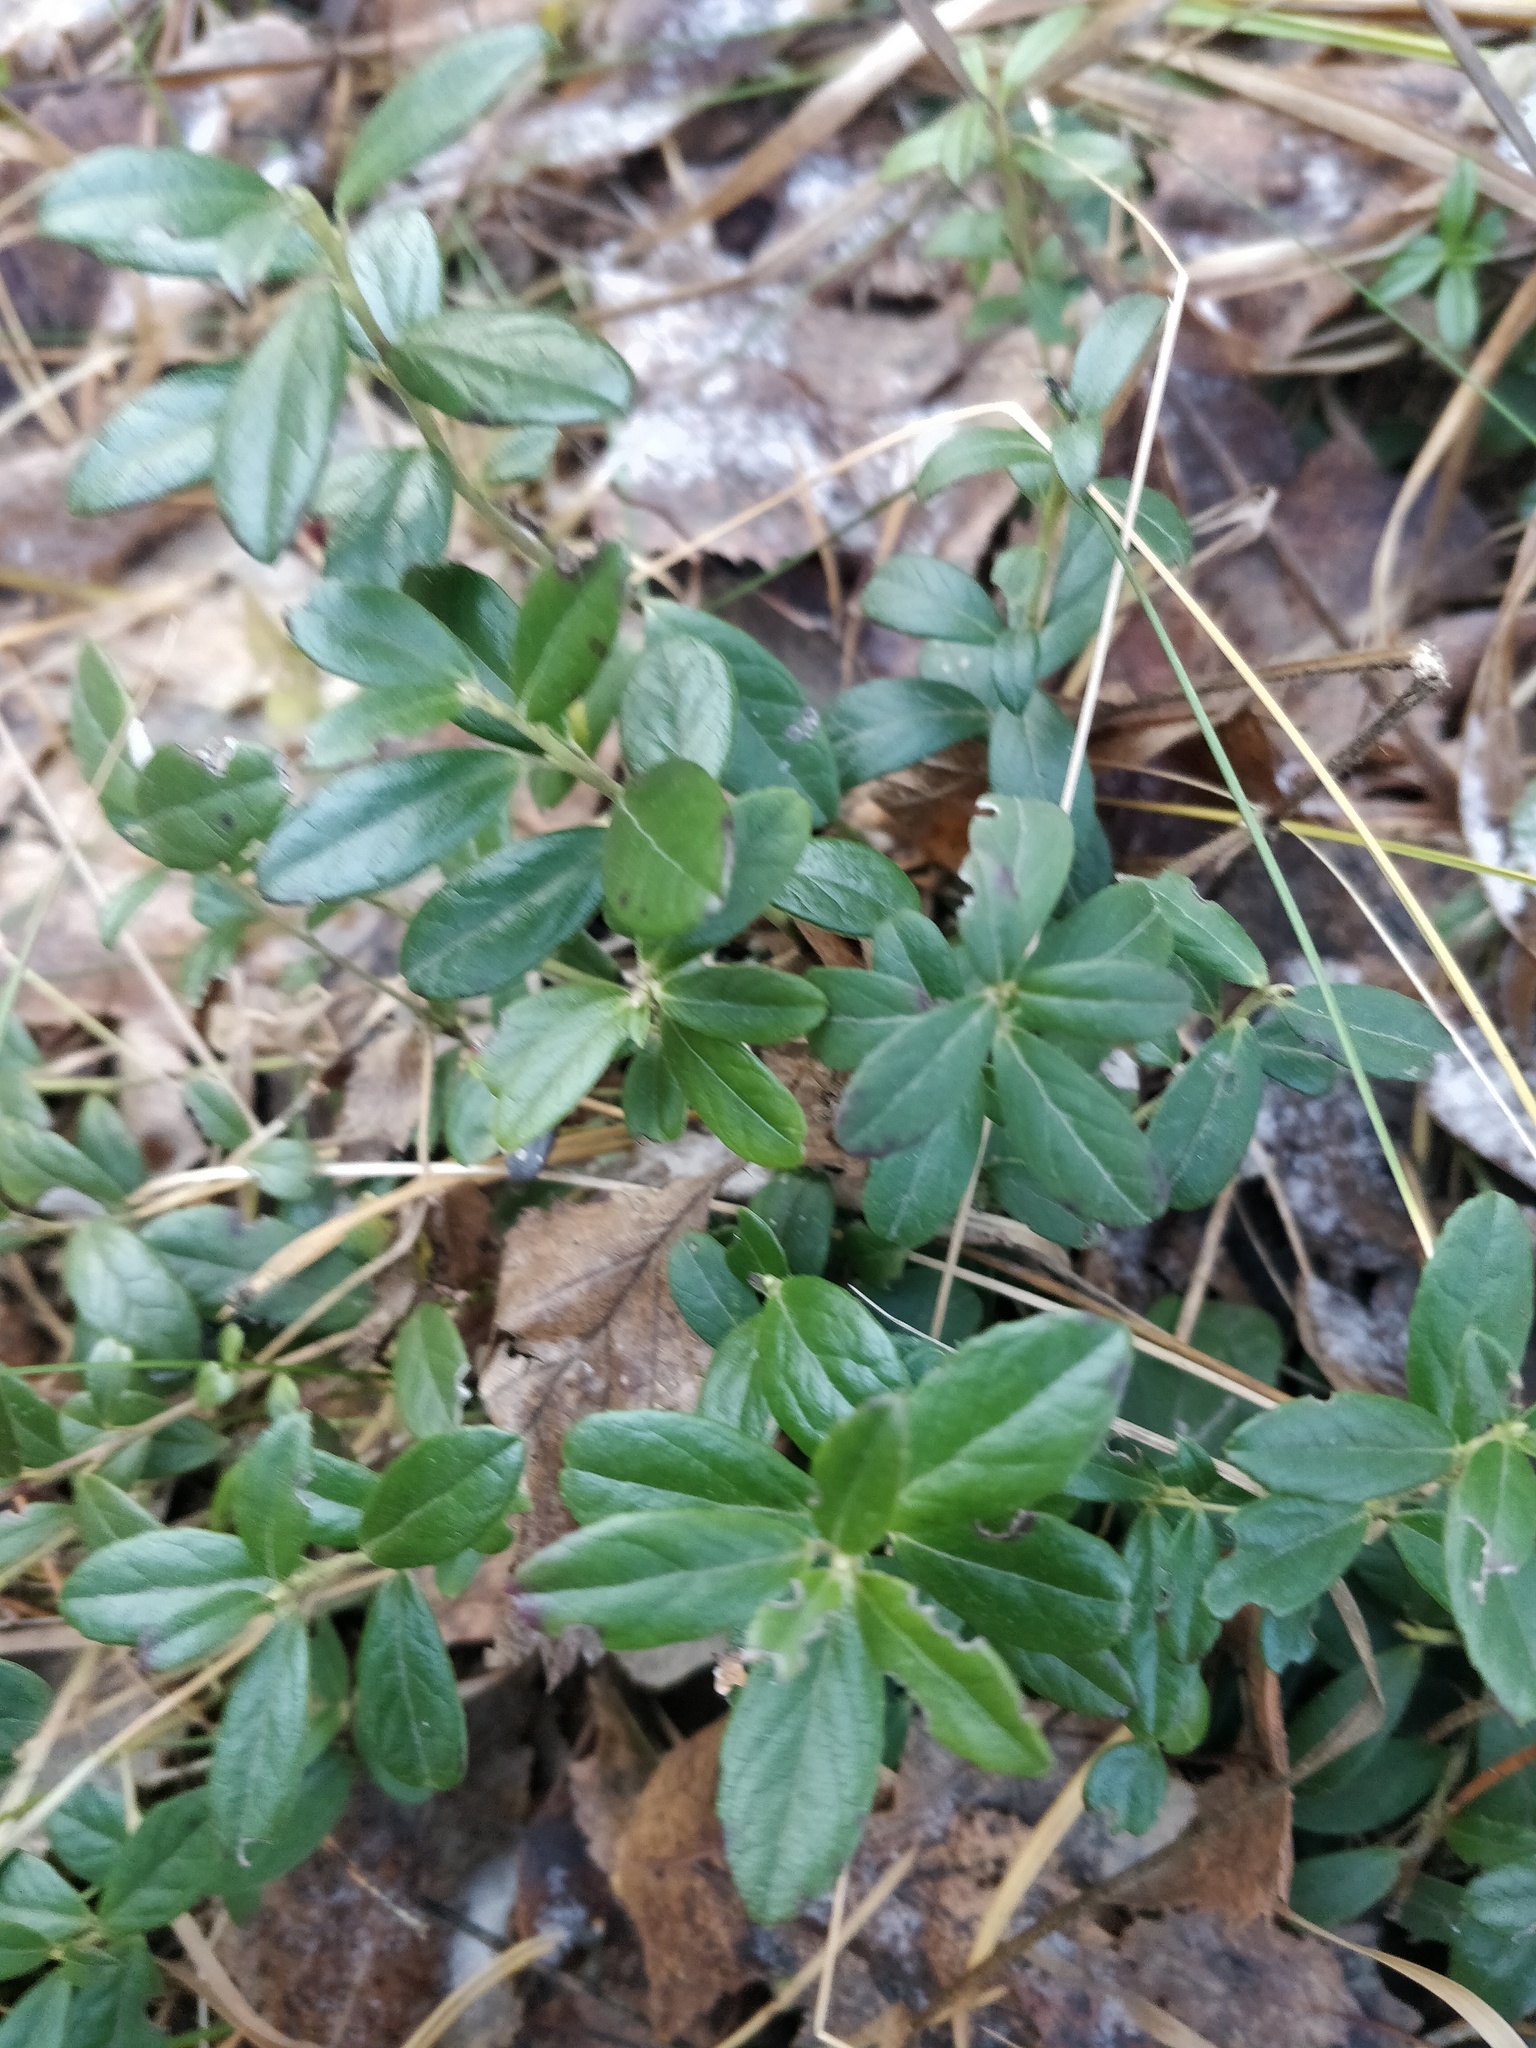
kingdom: Plantae
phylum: Tracheophyta
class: Magnoliopsida
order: Ericales
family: Ericaceae
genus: Vaccinium
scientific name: Vaccinium vitis-idaea
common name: Cowberry
